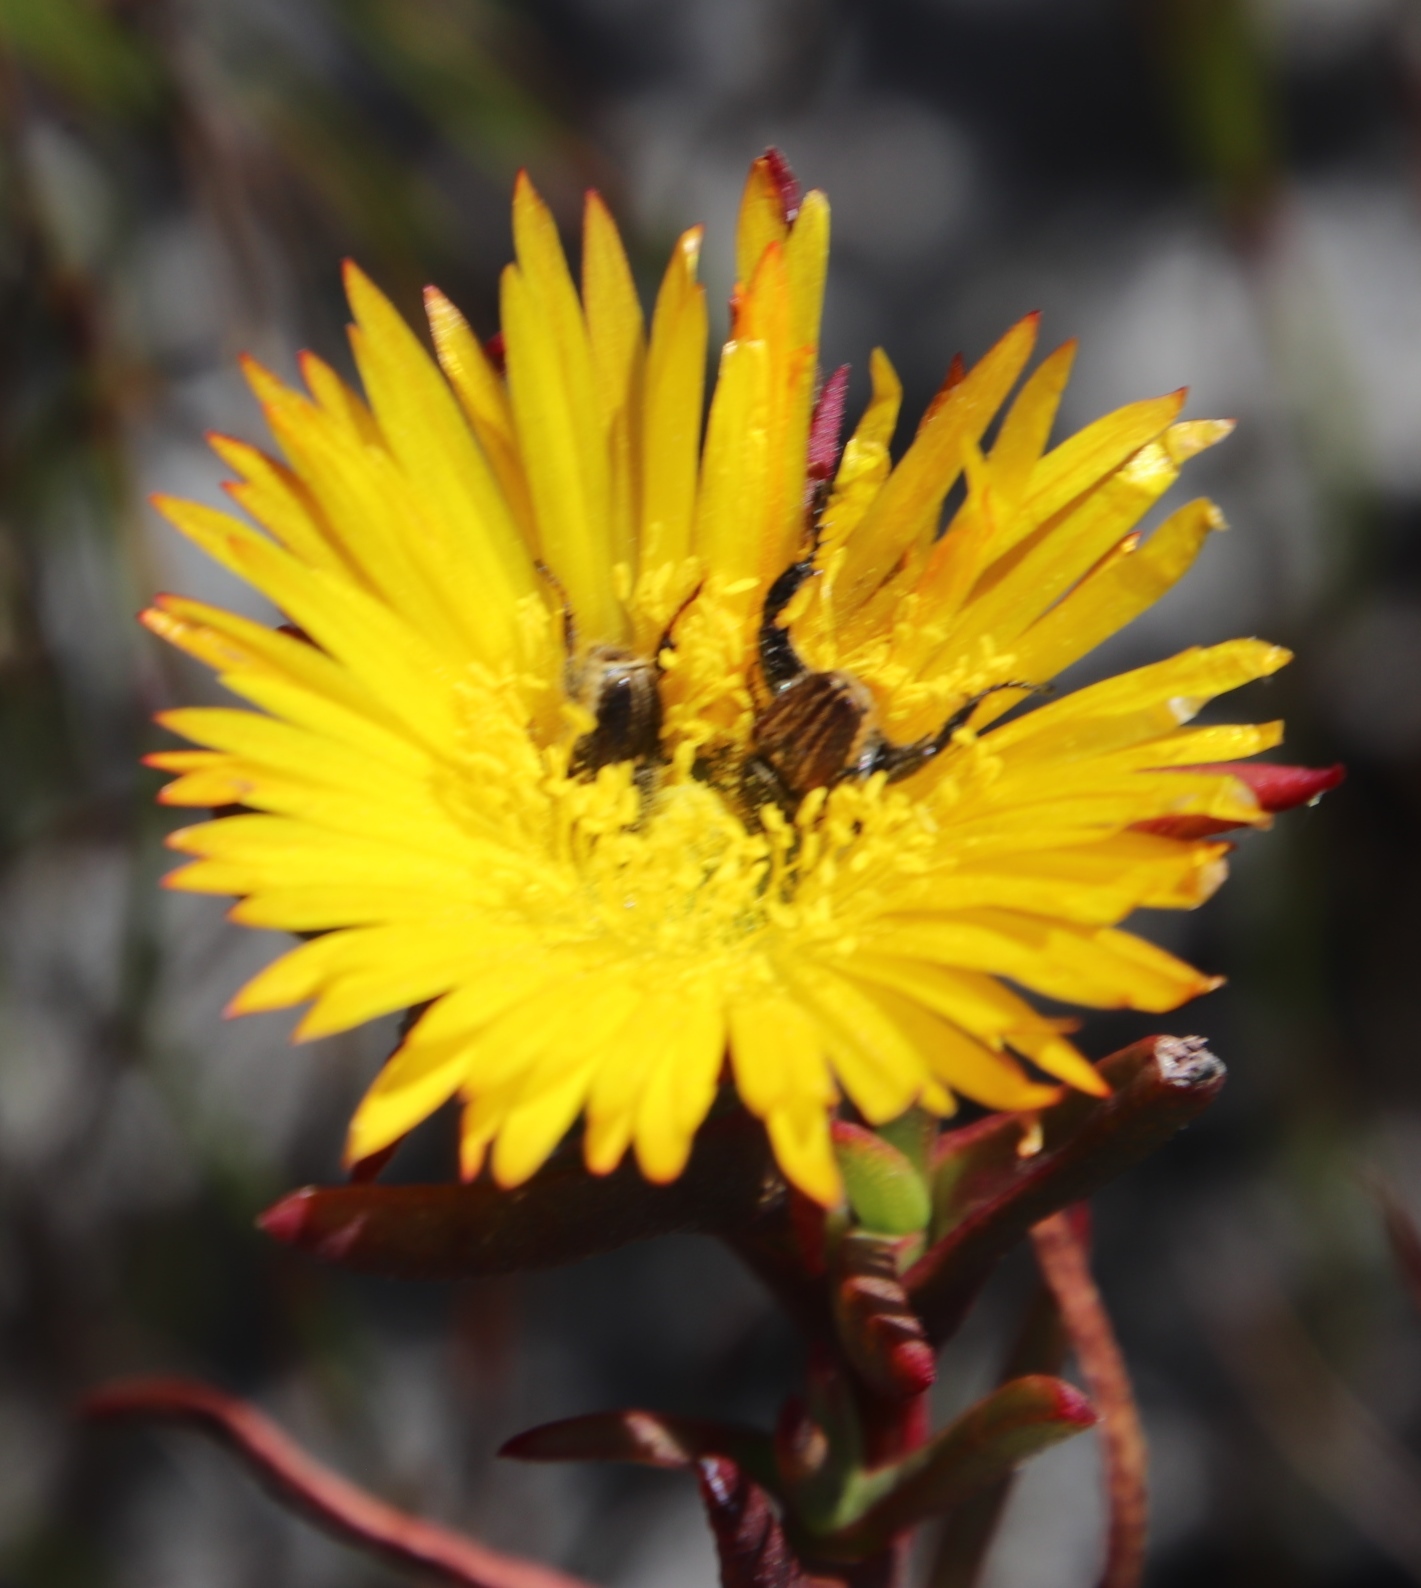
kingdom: Plantae
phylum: Tracheophyta
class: Magnoliopsida
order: Caryophyllales
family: Aizoaceae
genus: Lampranthus
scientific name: Lampranthus promontorii
